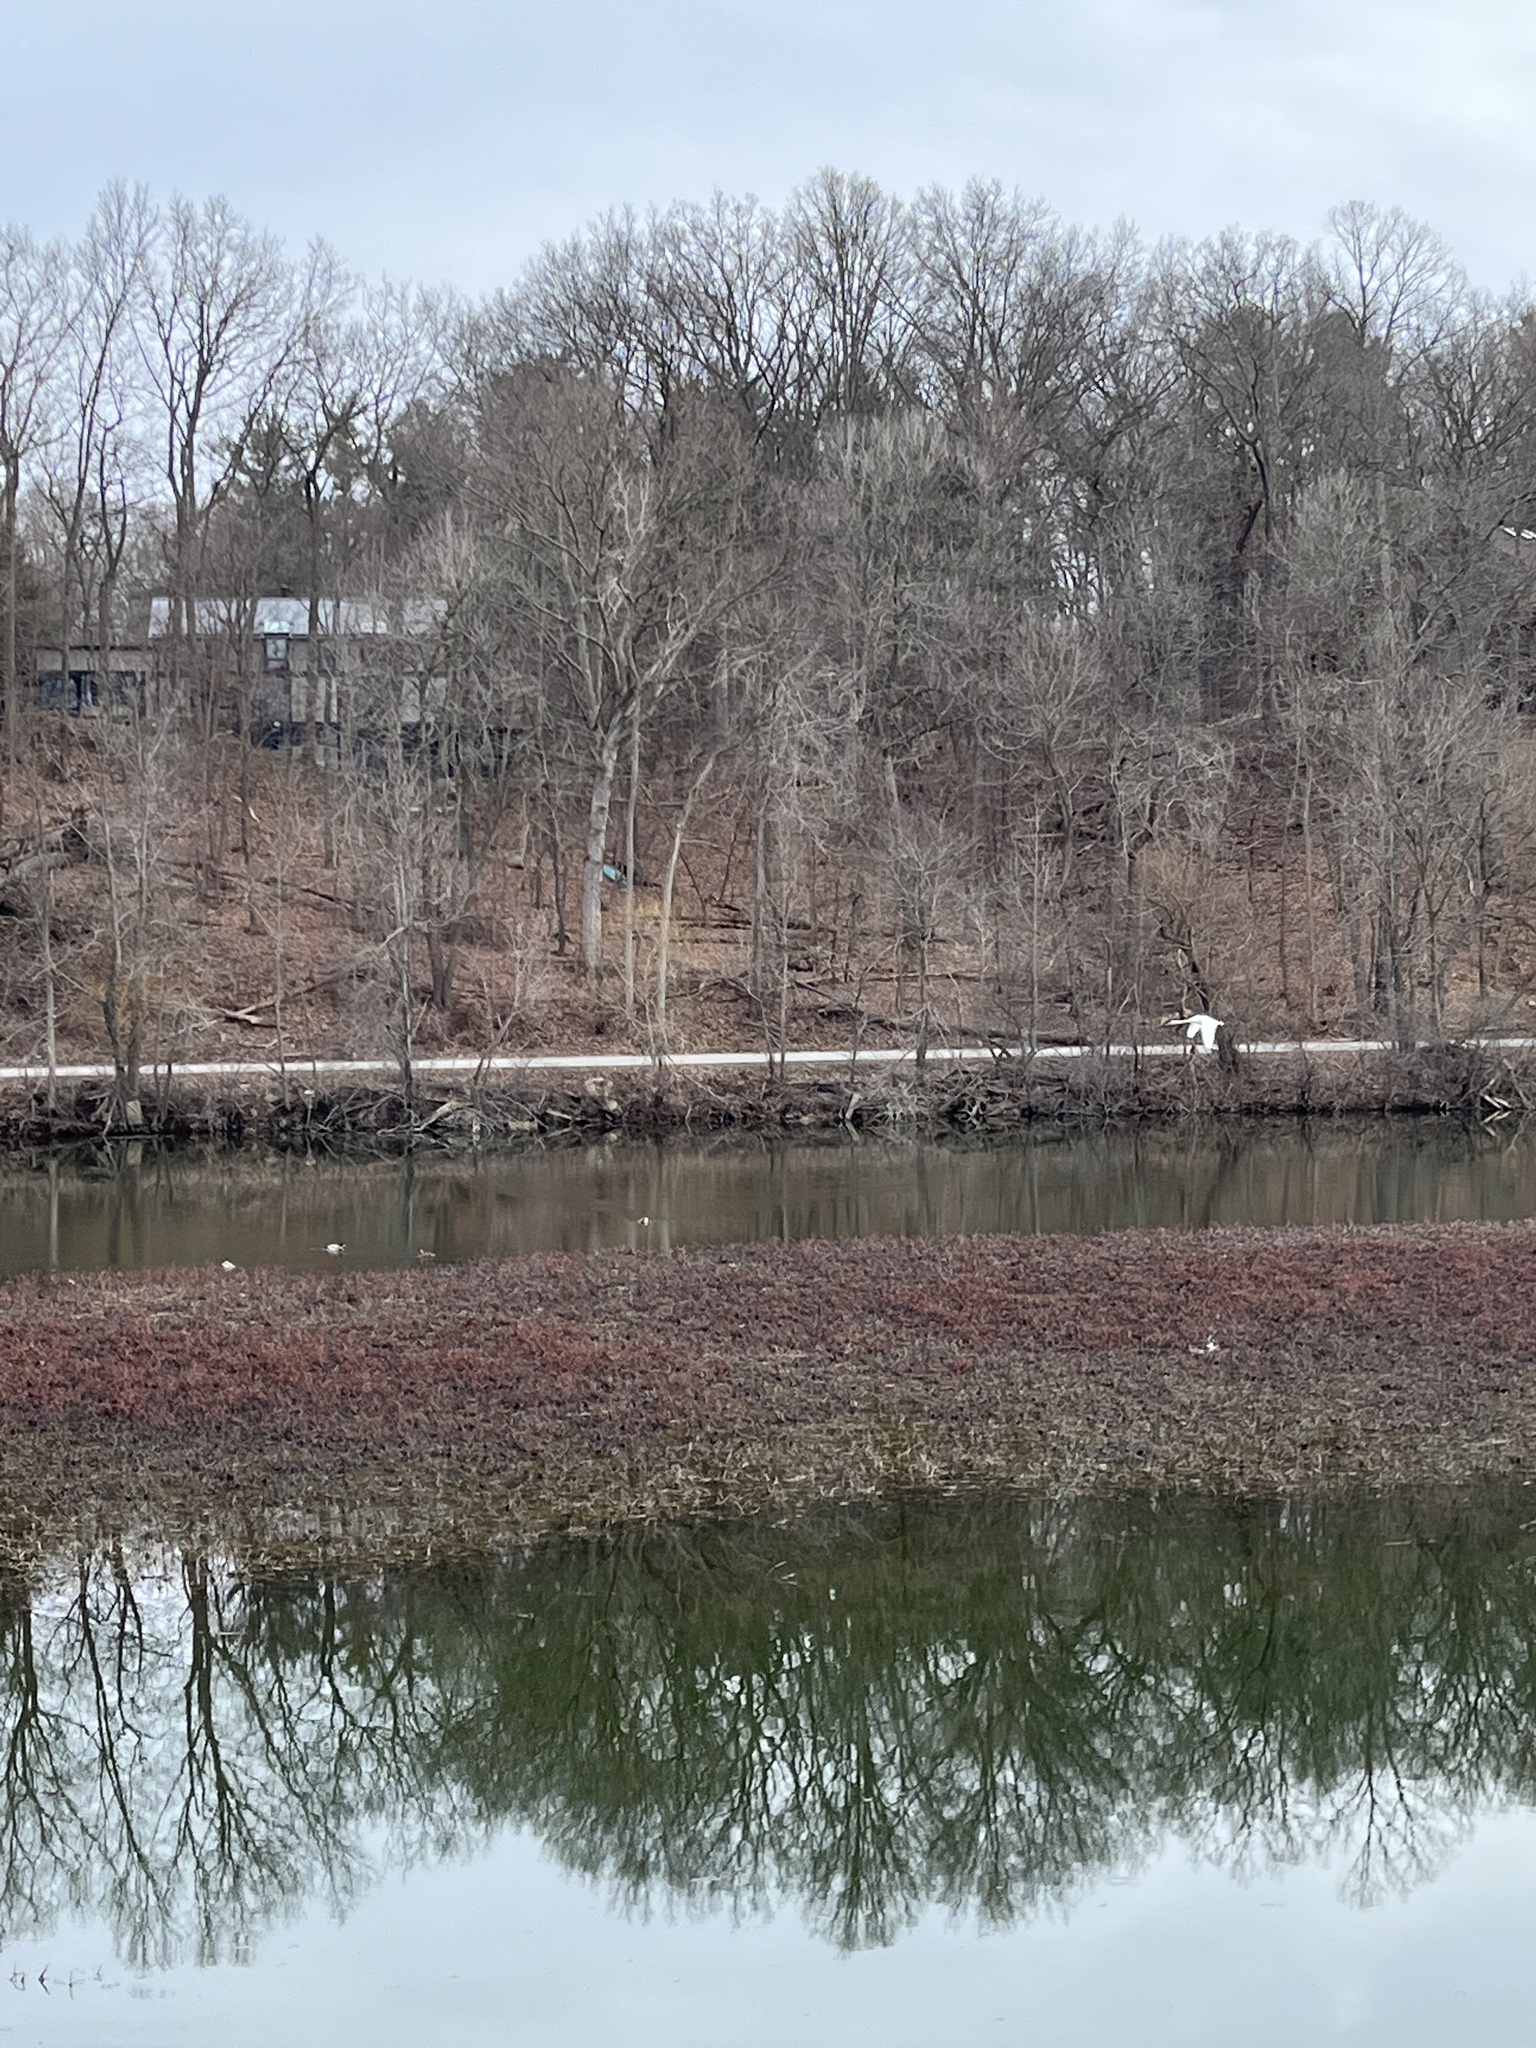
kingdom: Animalia
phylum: Chordata
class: Aves
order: Anseriformes
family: Anatidae
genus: Cygnus
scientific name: Cygnus olor
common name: Mute swan
